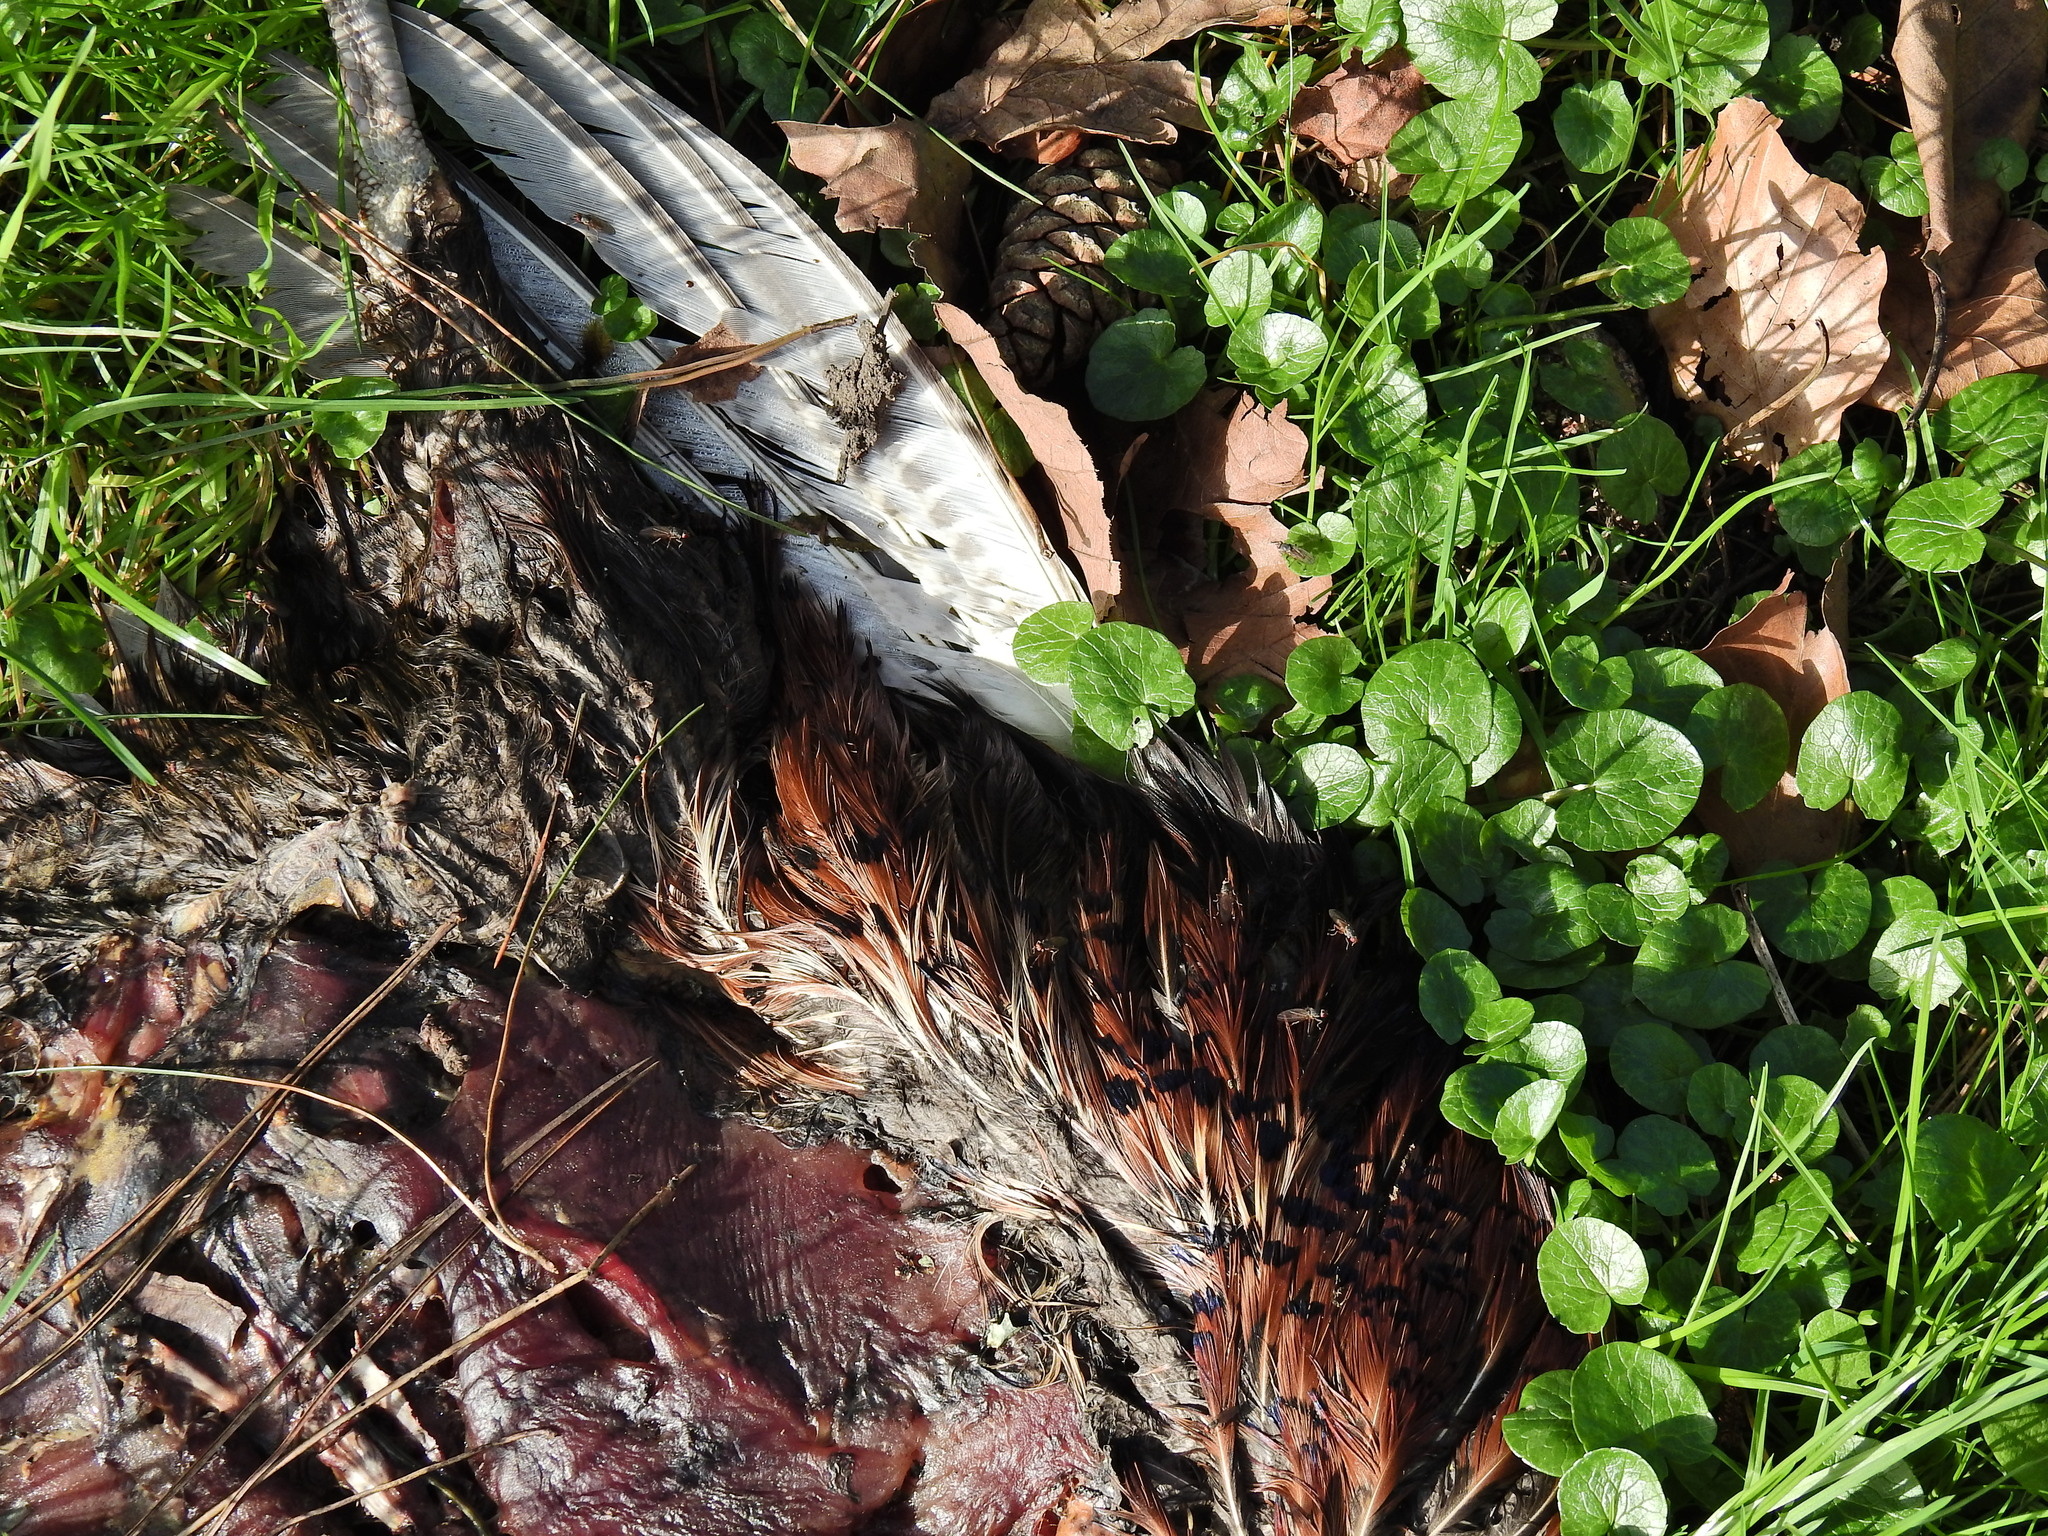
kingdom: Animalia
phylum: Chordata
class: Aves
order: Galliformes
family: Phasianidae
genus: Phasianus
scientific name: Phasianus colchicus
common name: Common pheasant
